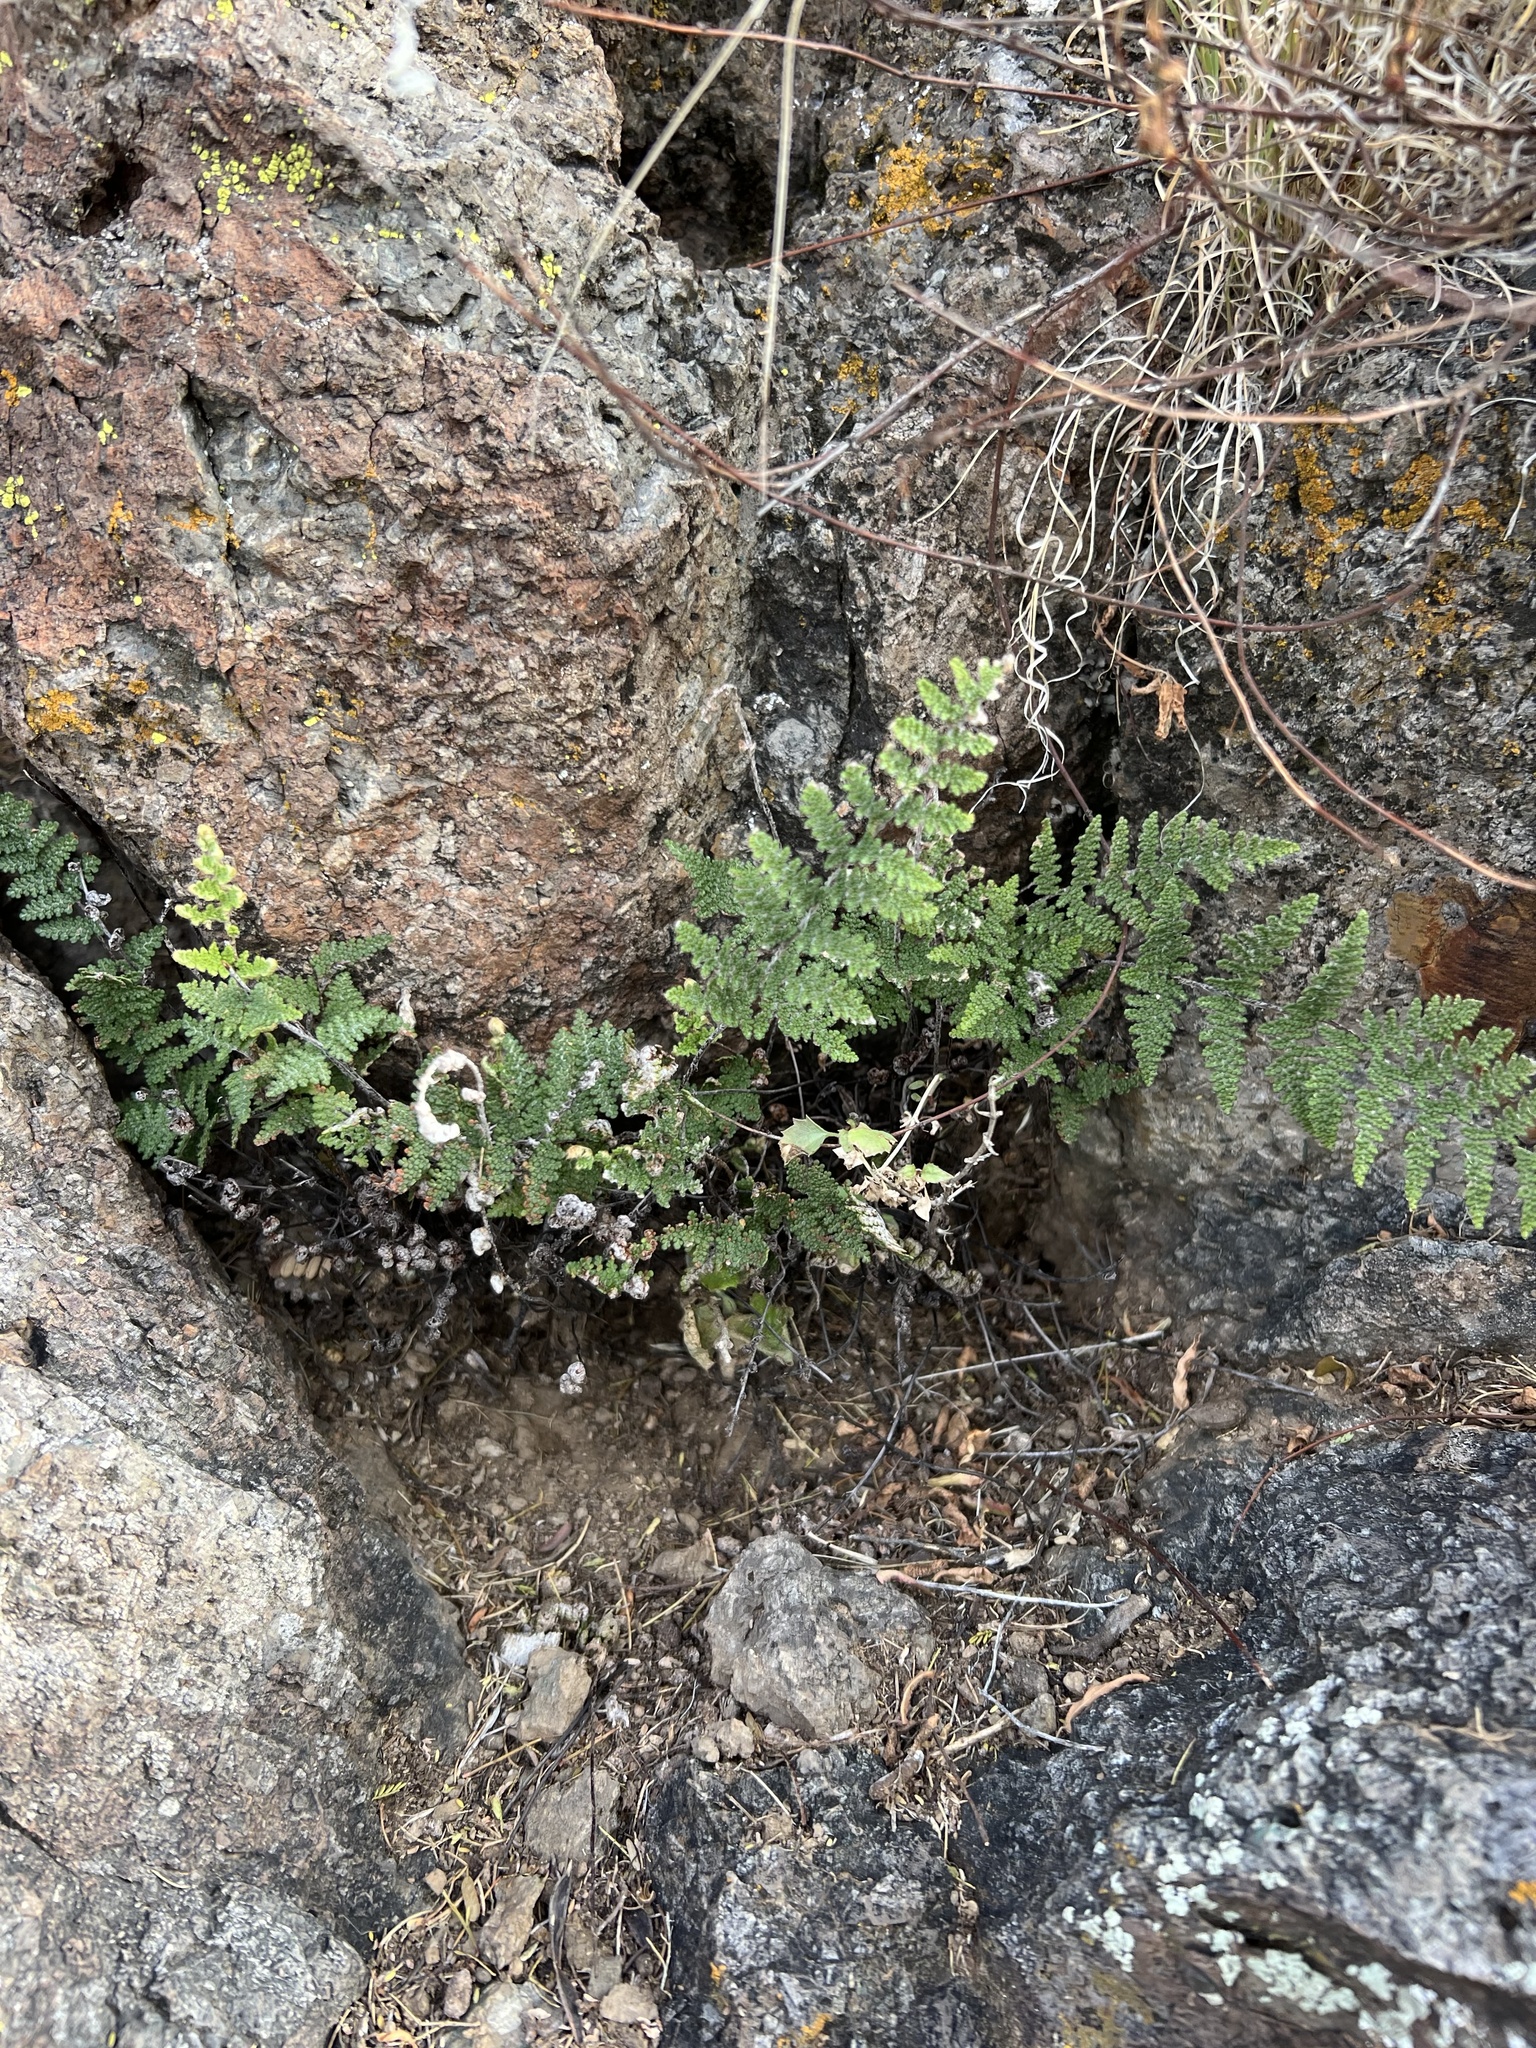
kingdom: Plantae
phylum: Tracheophyta
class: Polypodiopsida
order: Polypodiales
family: Pteridaceae
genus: Myriopteris
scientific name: Myriopteris fendleri
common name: Fendler's lip fern
